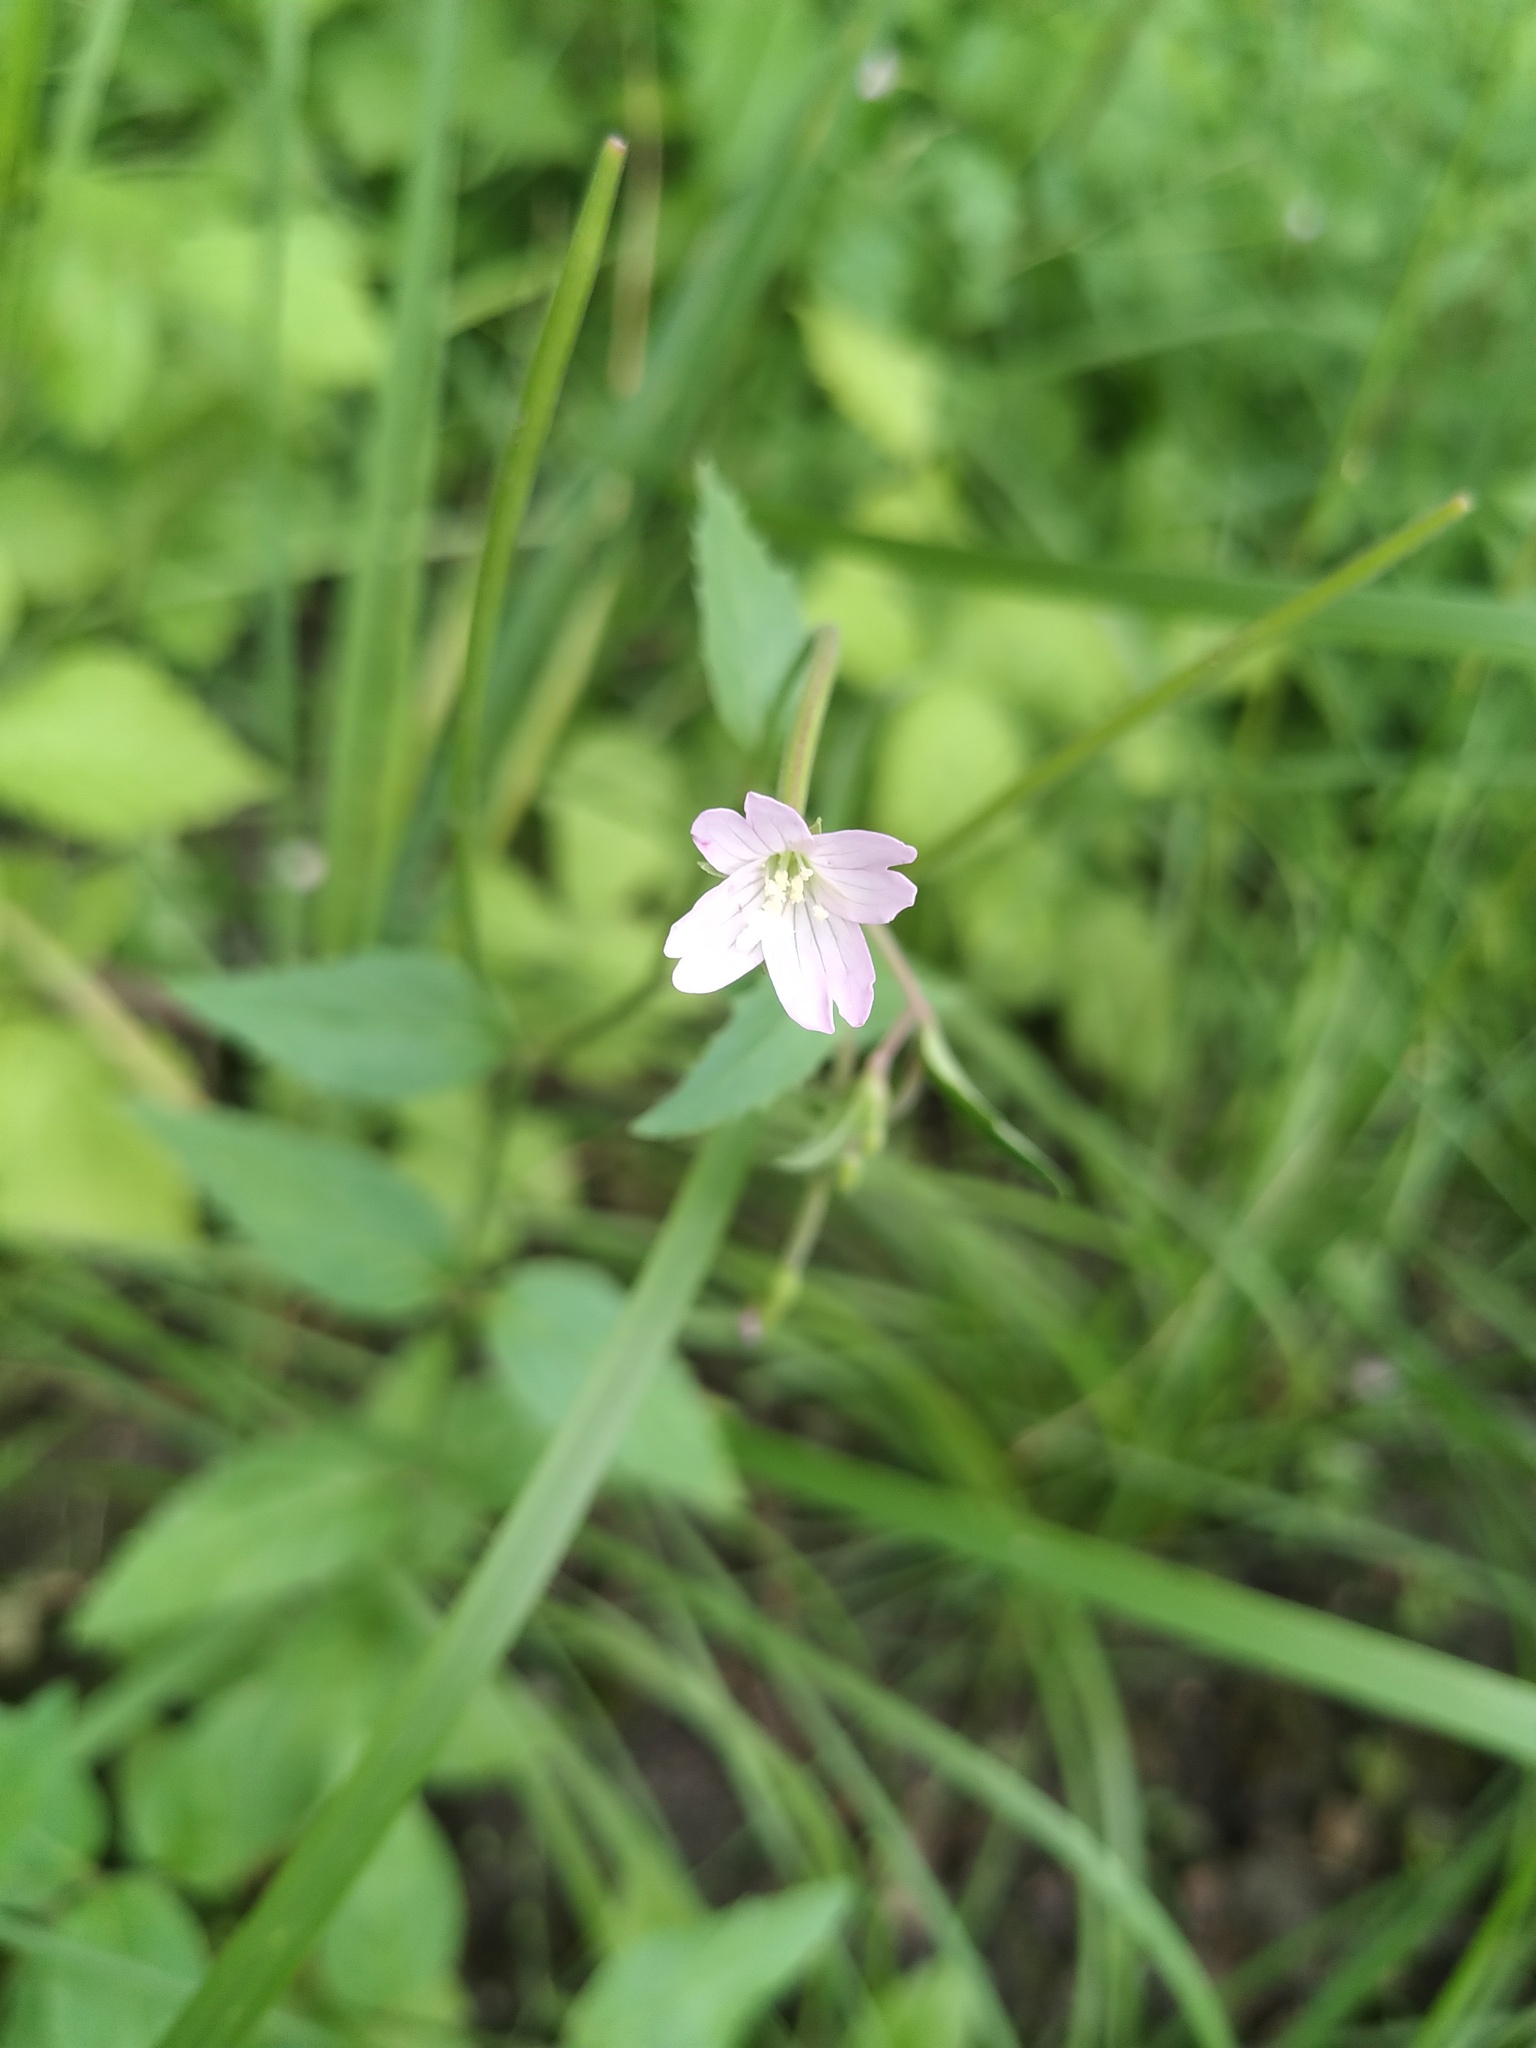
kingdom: Plantae
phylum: Tracheophyta
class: Magnoliopsida
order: Myrtales
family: Onagraceae
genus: Epilobium
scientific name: Epilobium montanum
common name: Broad-leaved willowherb
